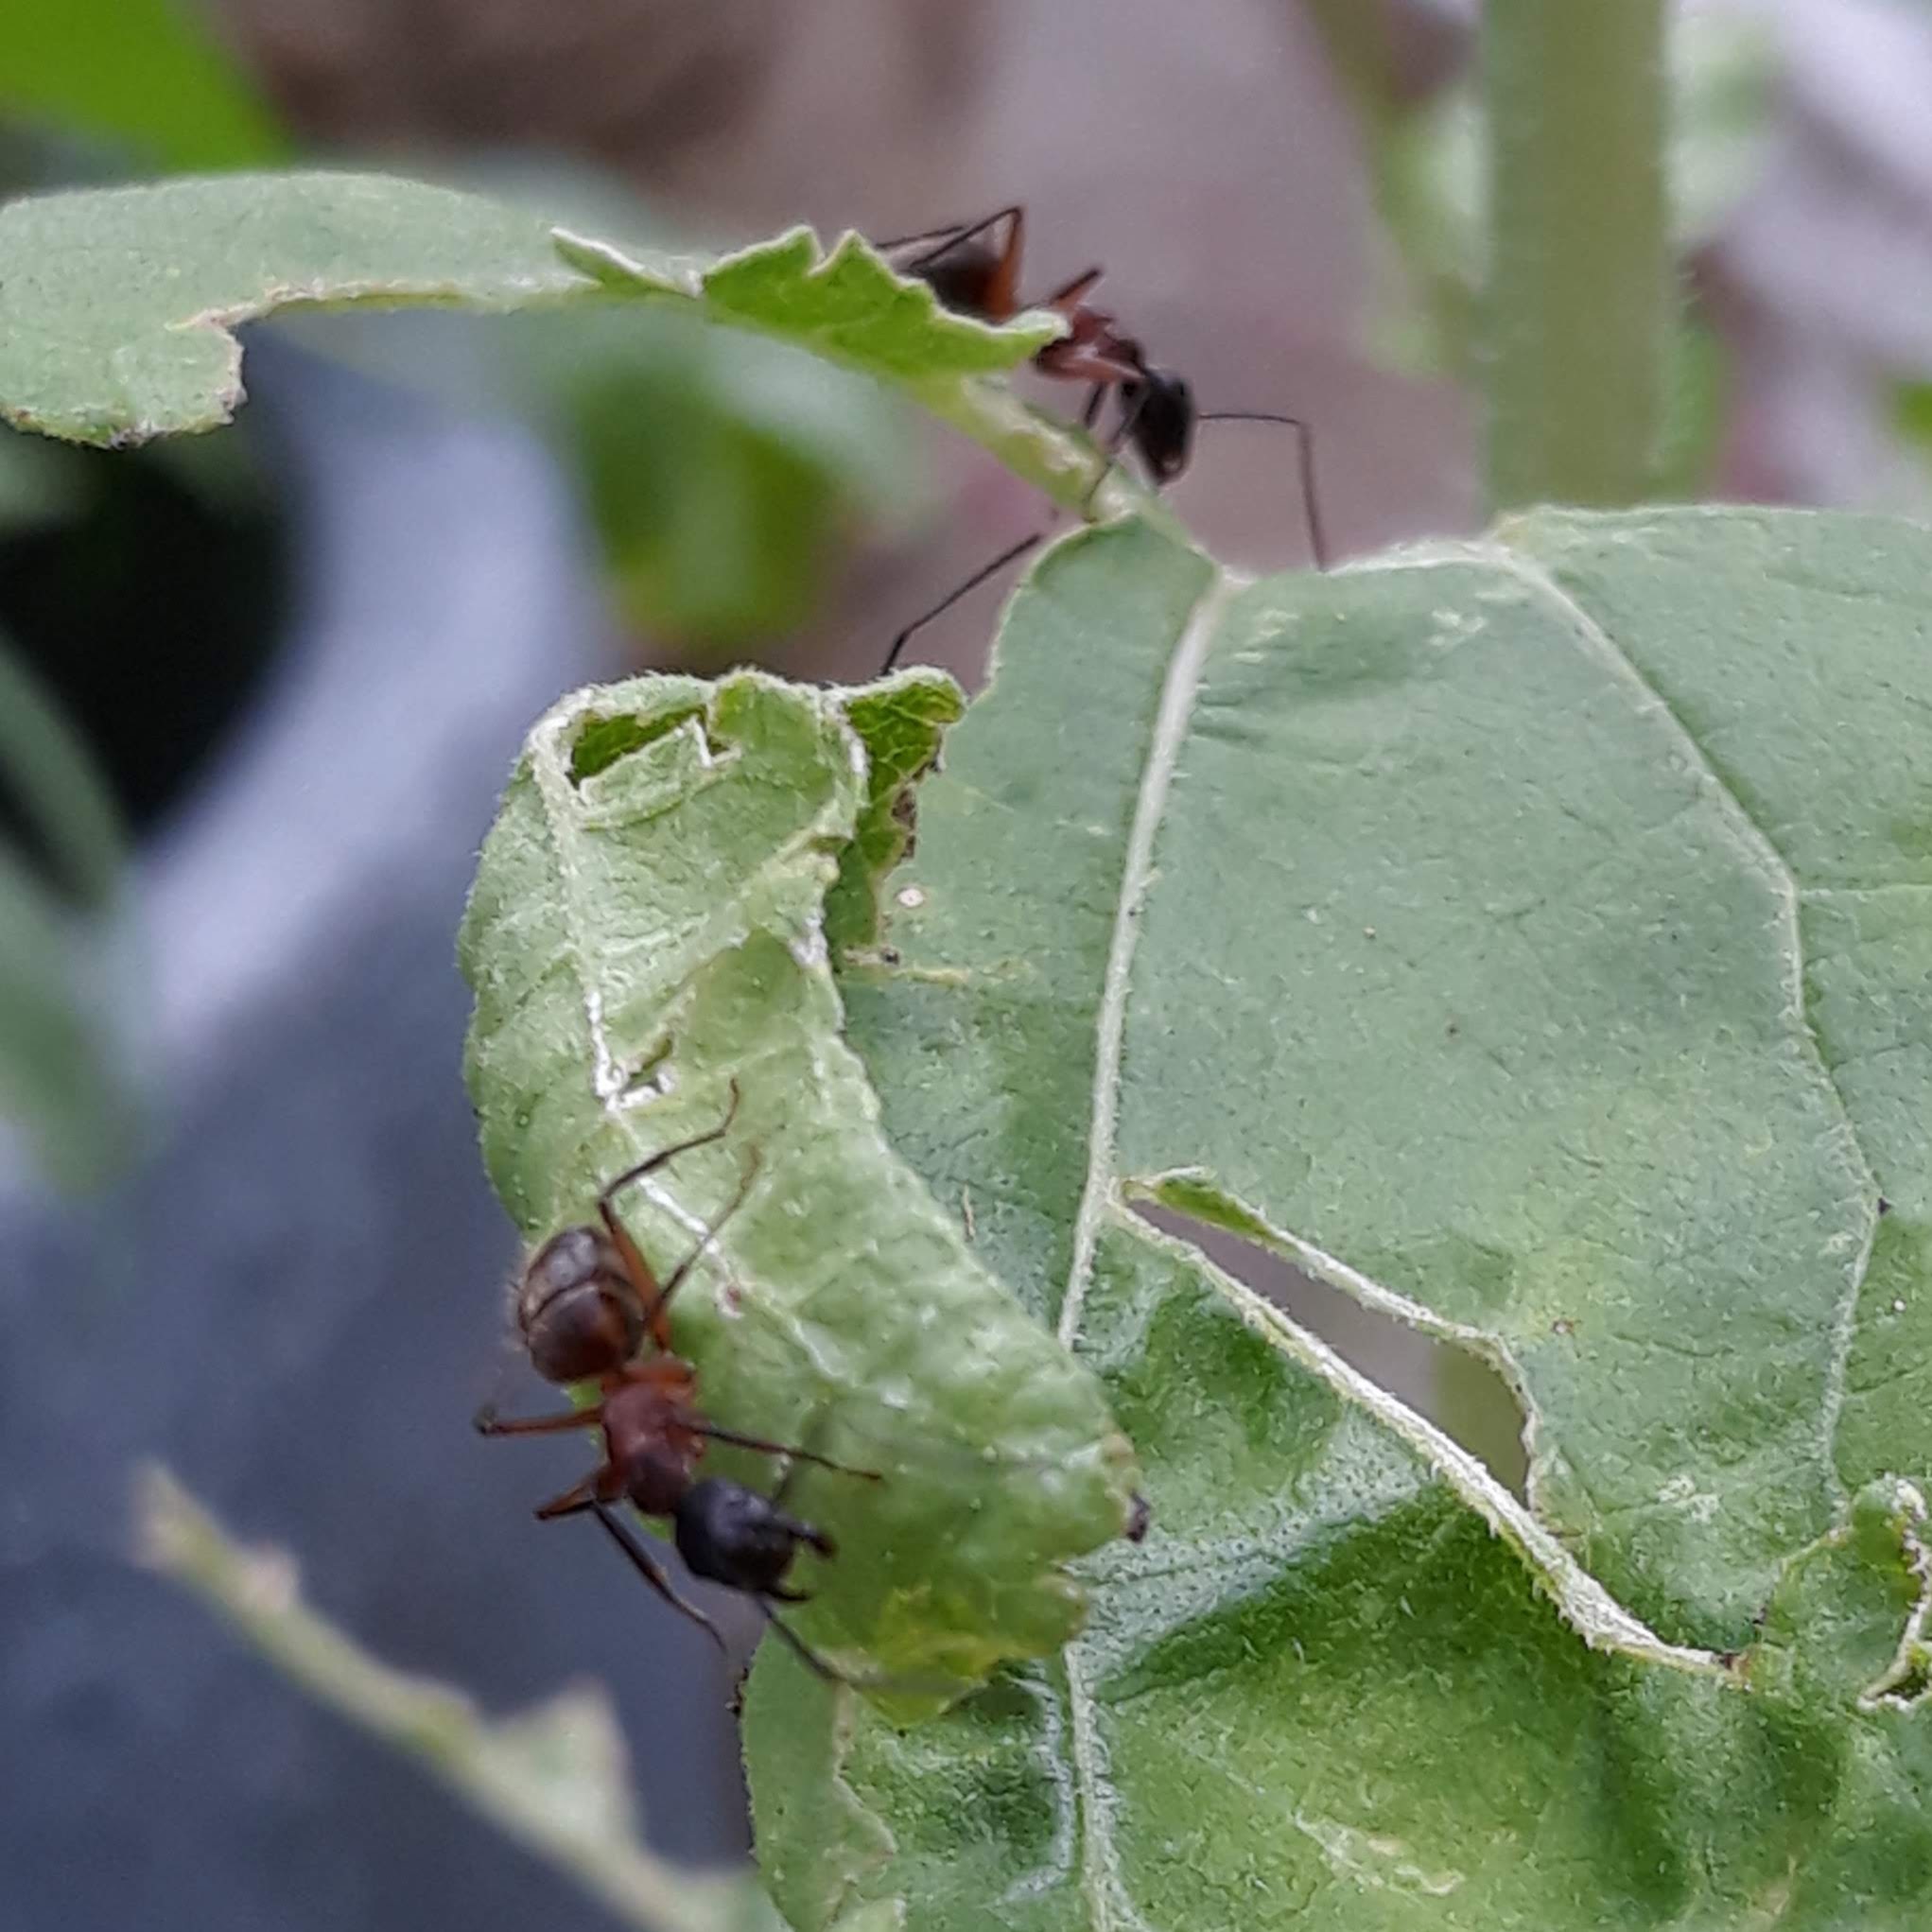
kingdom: Animalia
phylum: Arthropoda
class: Insecta
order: Hymenoptera
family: Formicidae
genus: Camponotus
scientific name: Camponotus chromaiodes
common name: Red carpenter ant
